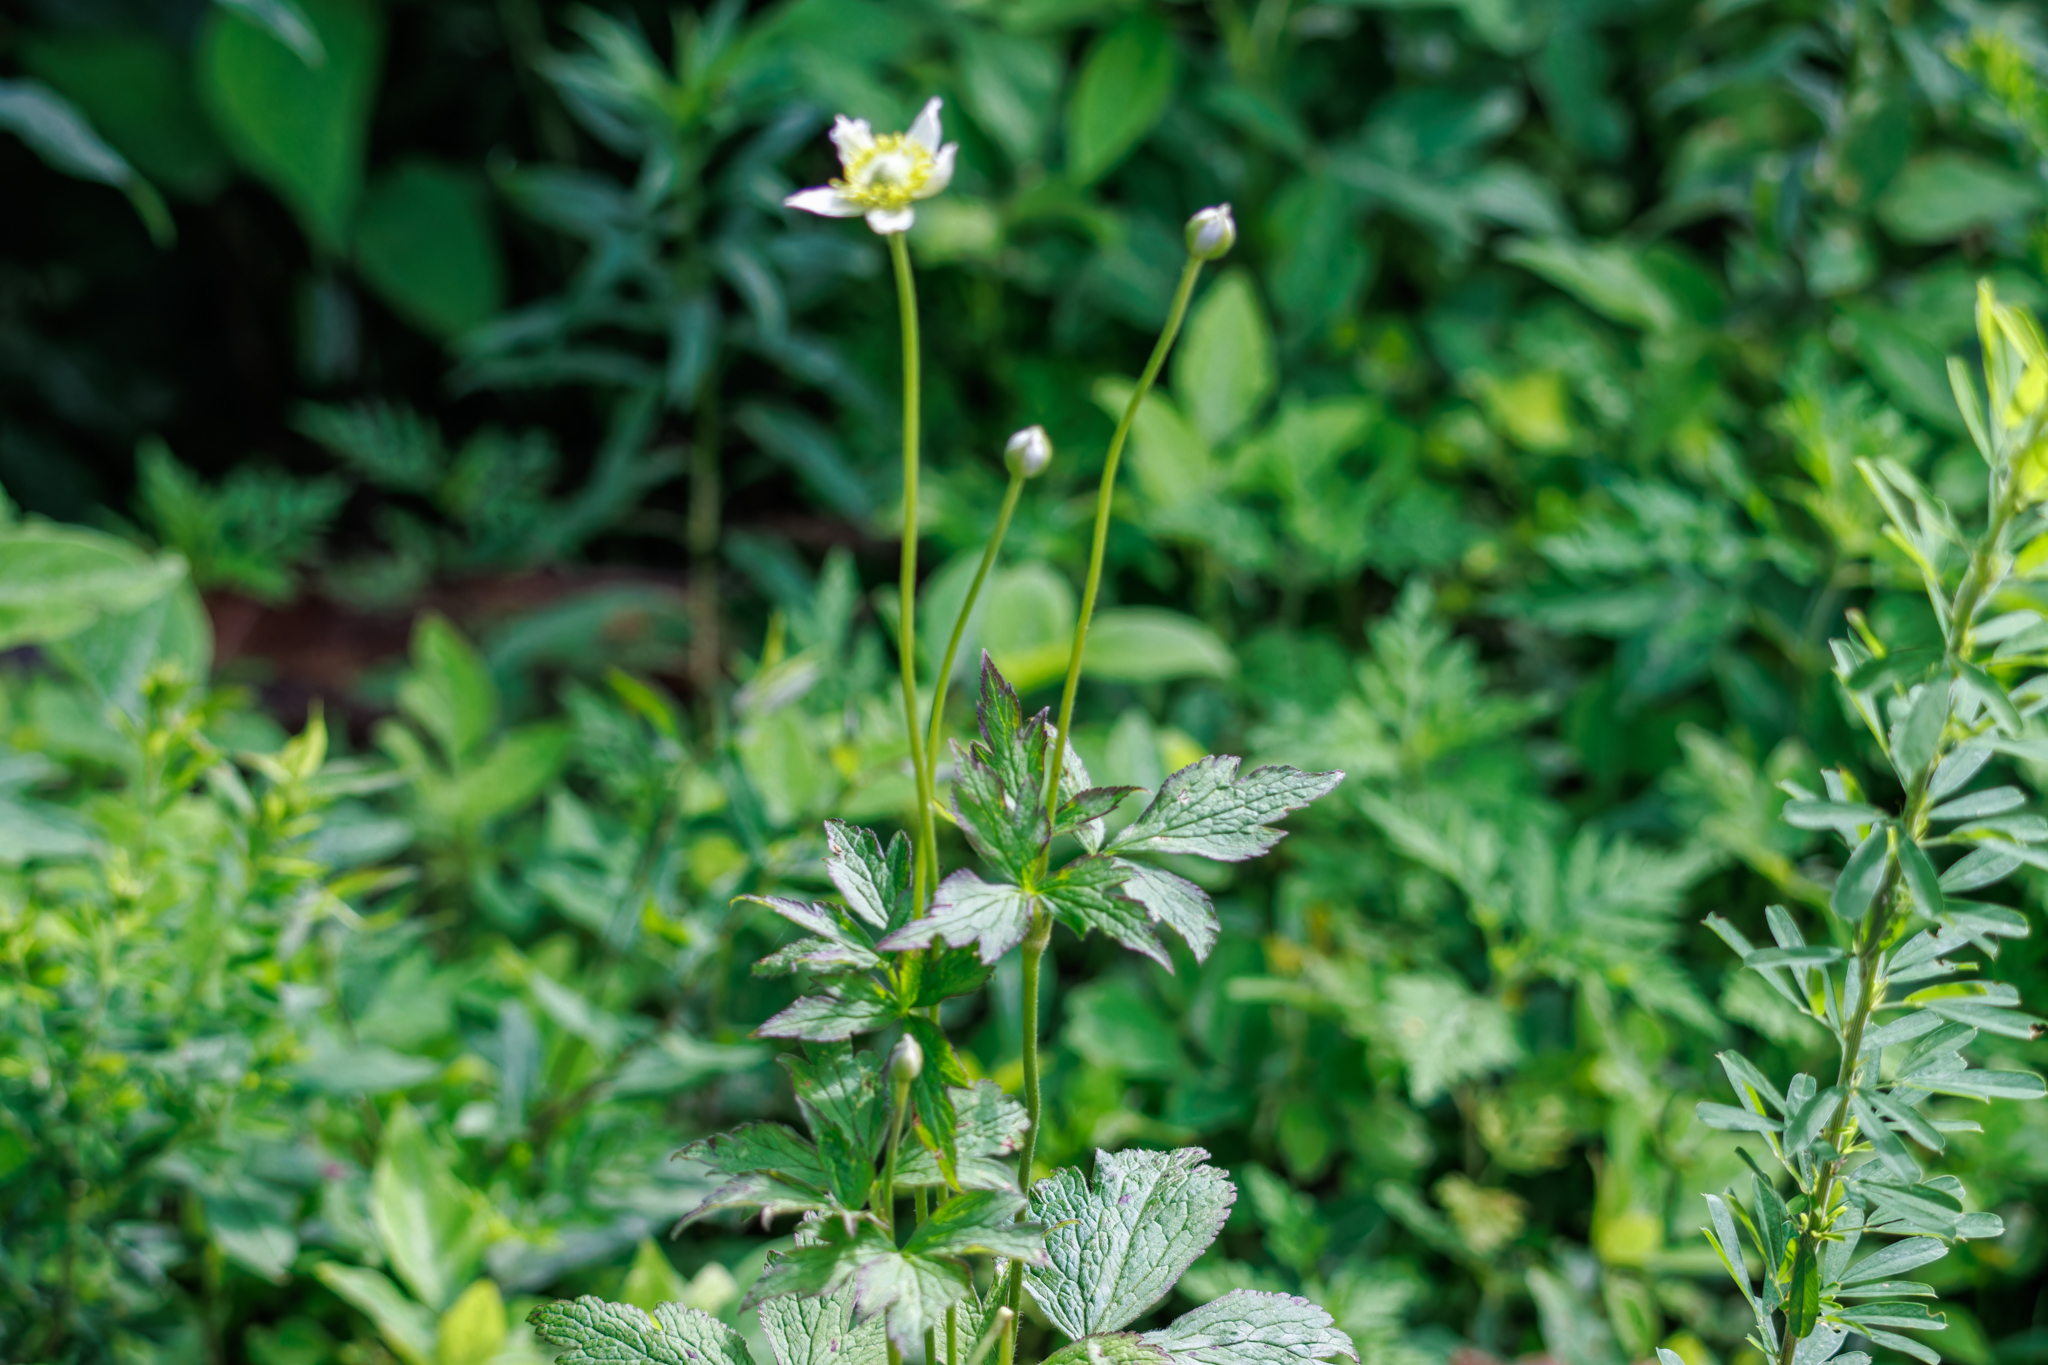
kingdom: Plantae
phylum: Tracheophyta
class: Magnoliopsida
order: Ranunculales
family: Ranunculaceae
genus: Anemone
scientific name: Anemone virginiana
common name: Tall anemone
